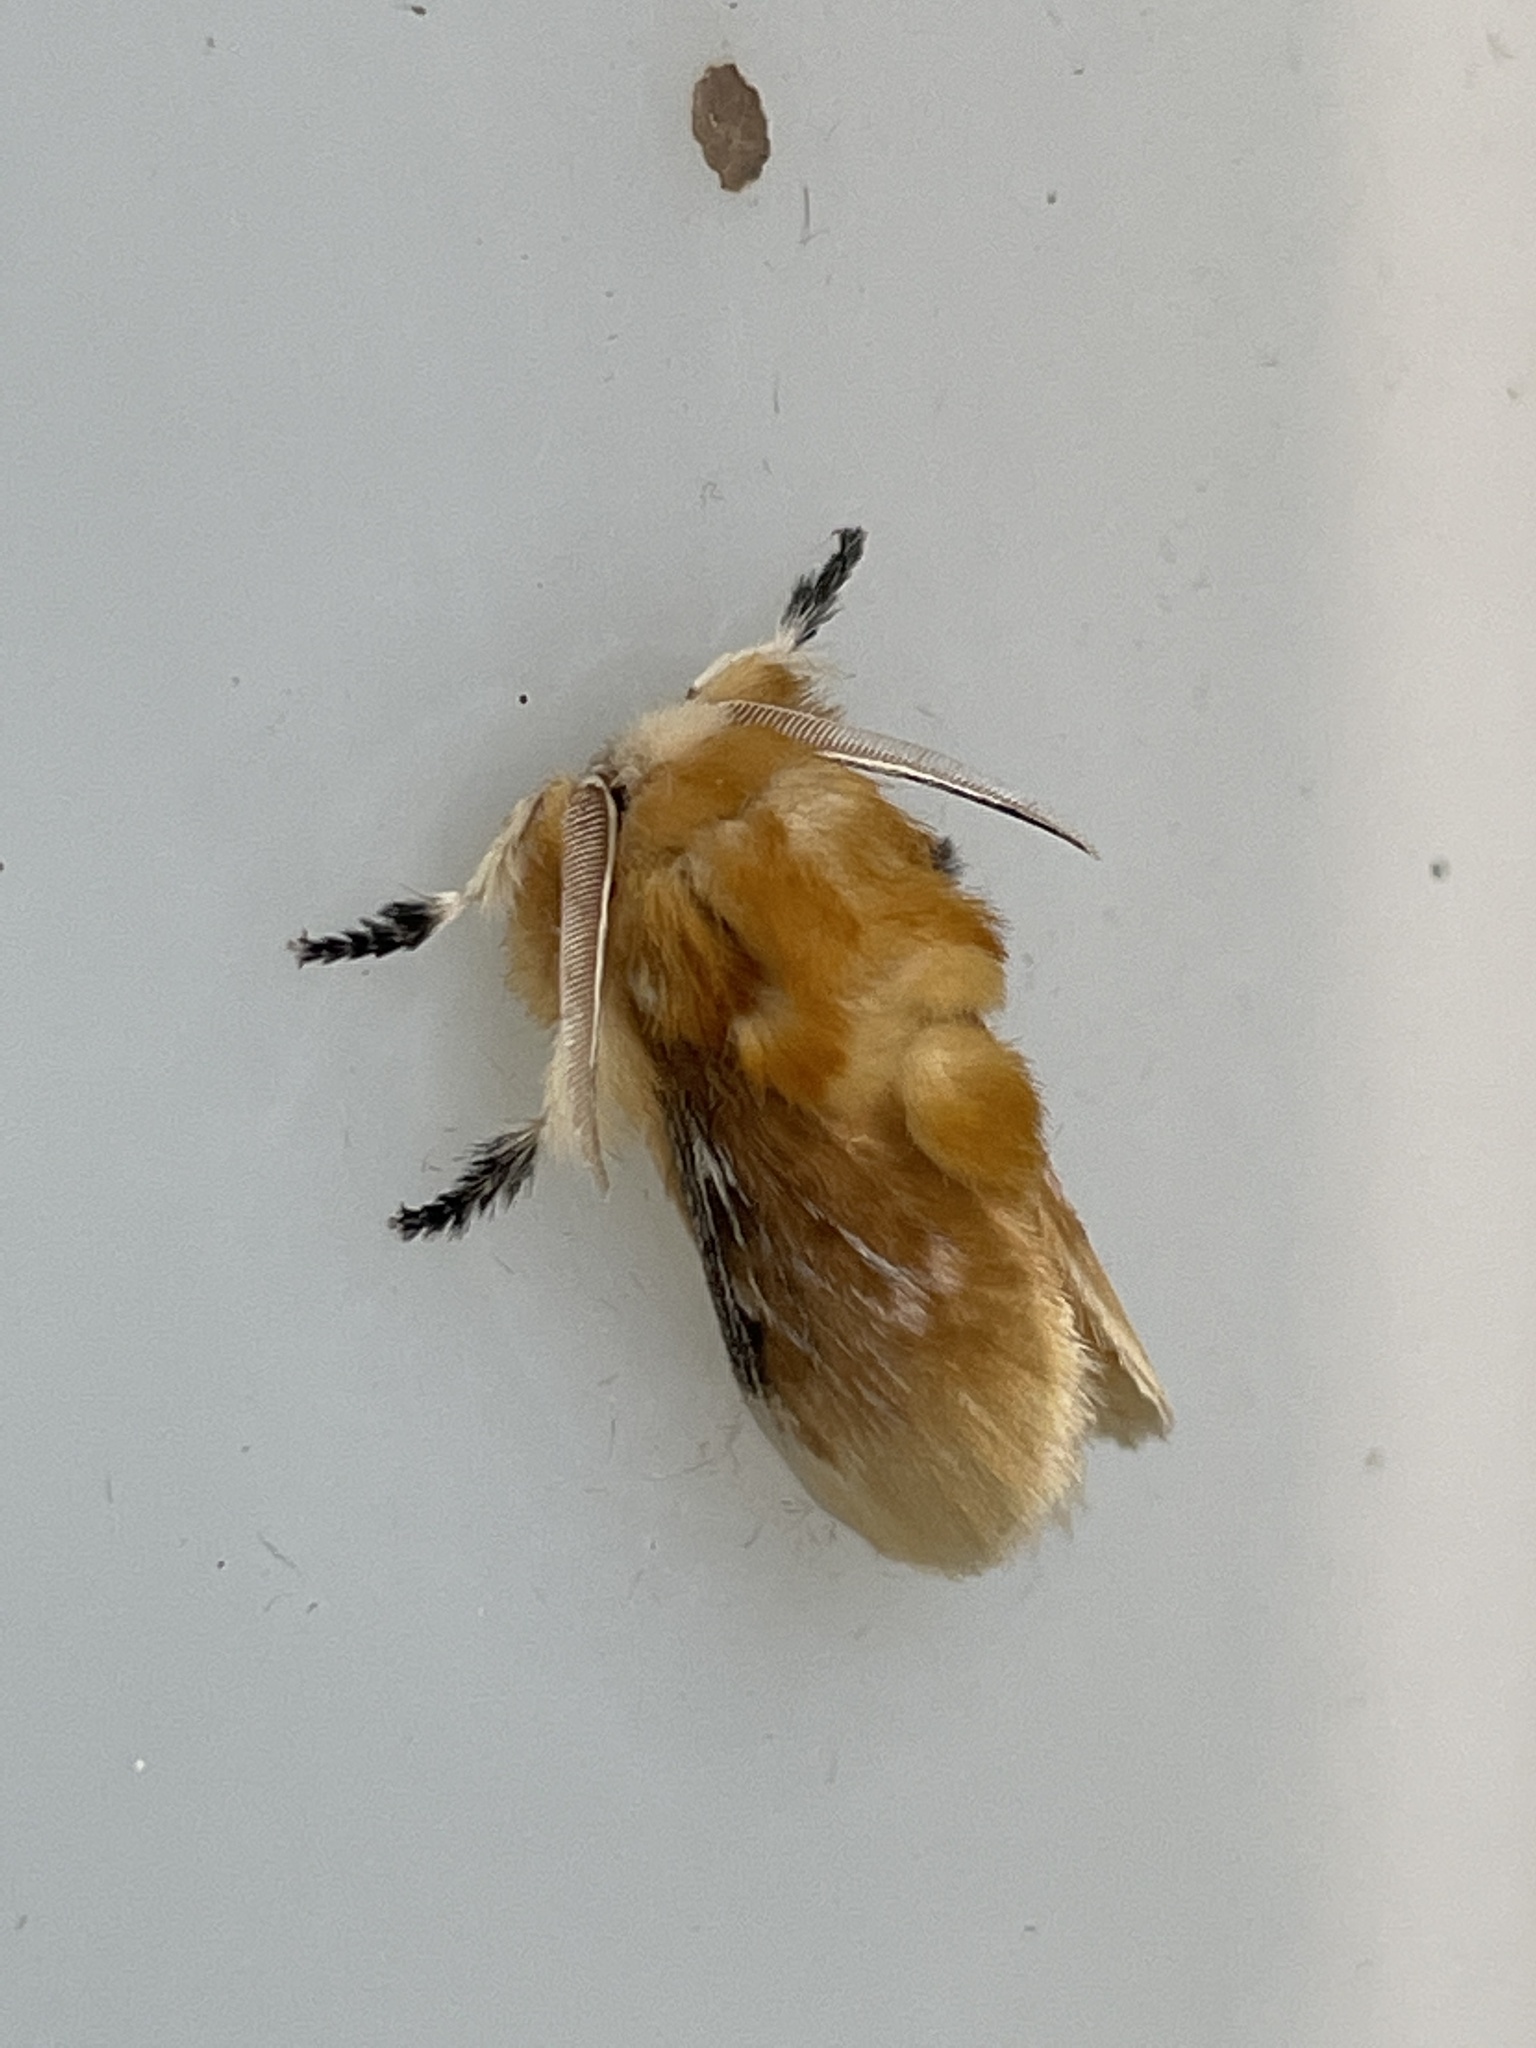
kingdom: Animalia
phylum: Arthropoda
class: Insecta
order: Lepidoptera
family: Megalopygidae
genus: Megalopyge
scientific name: Megalopyge opercularis
